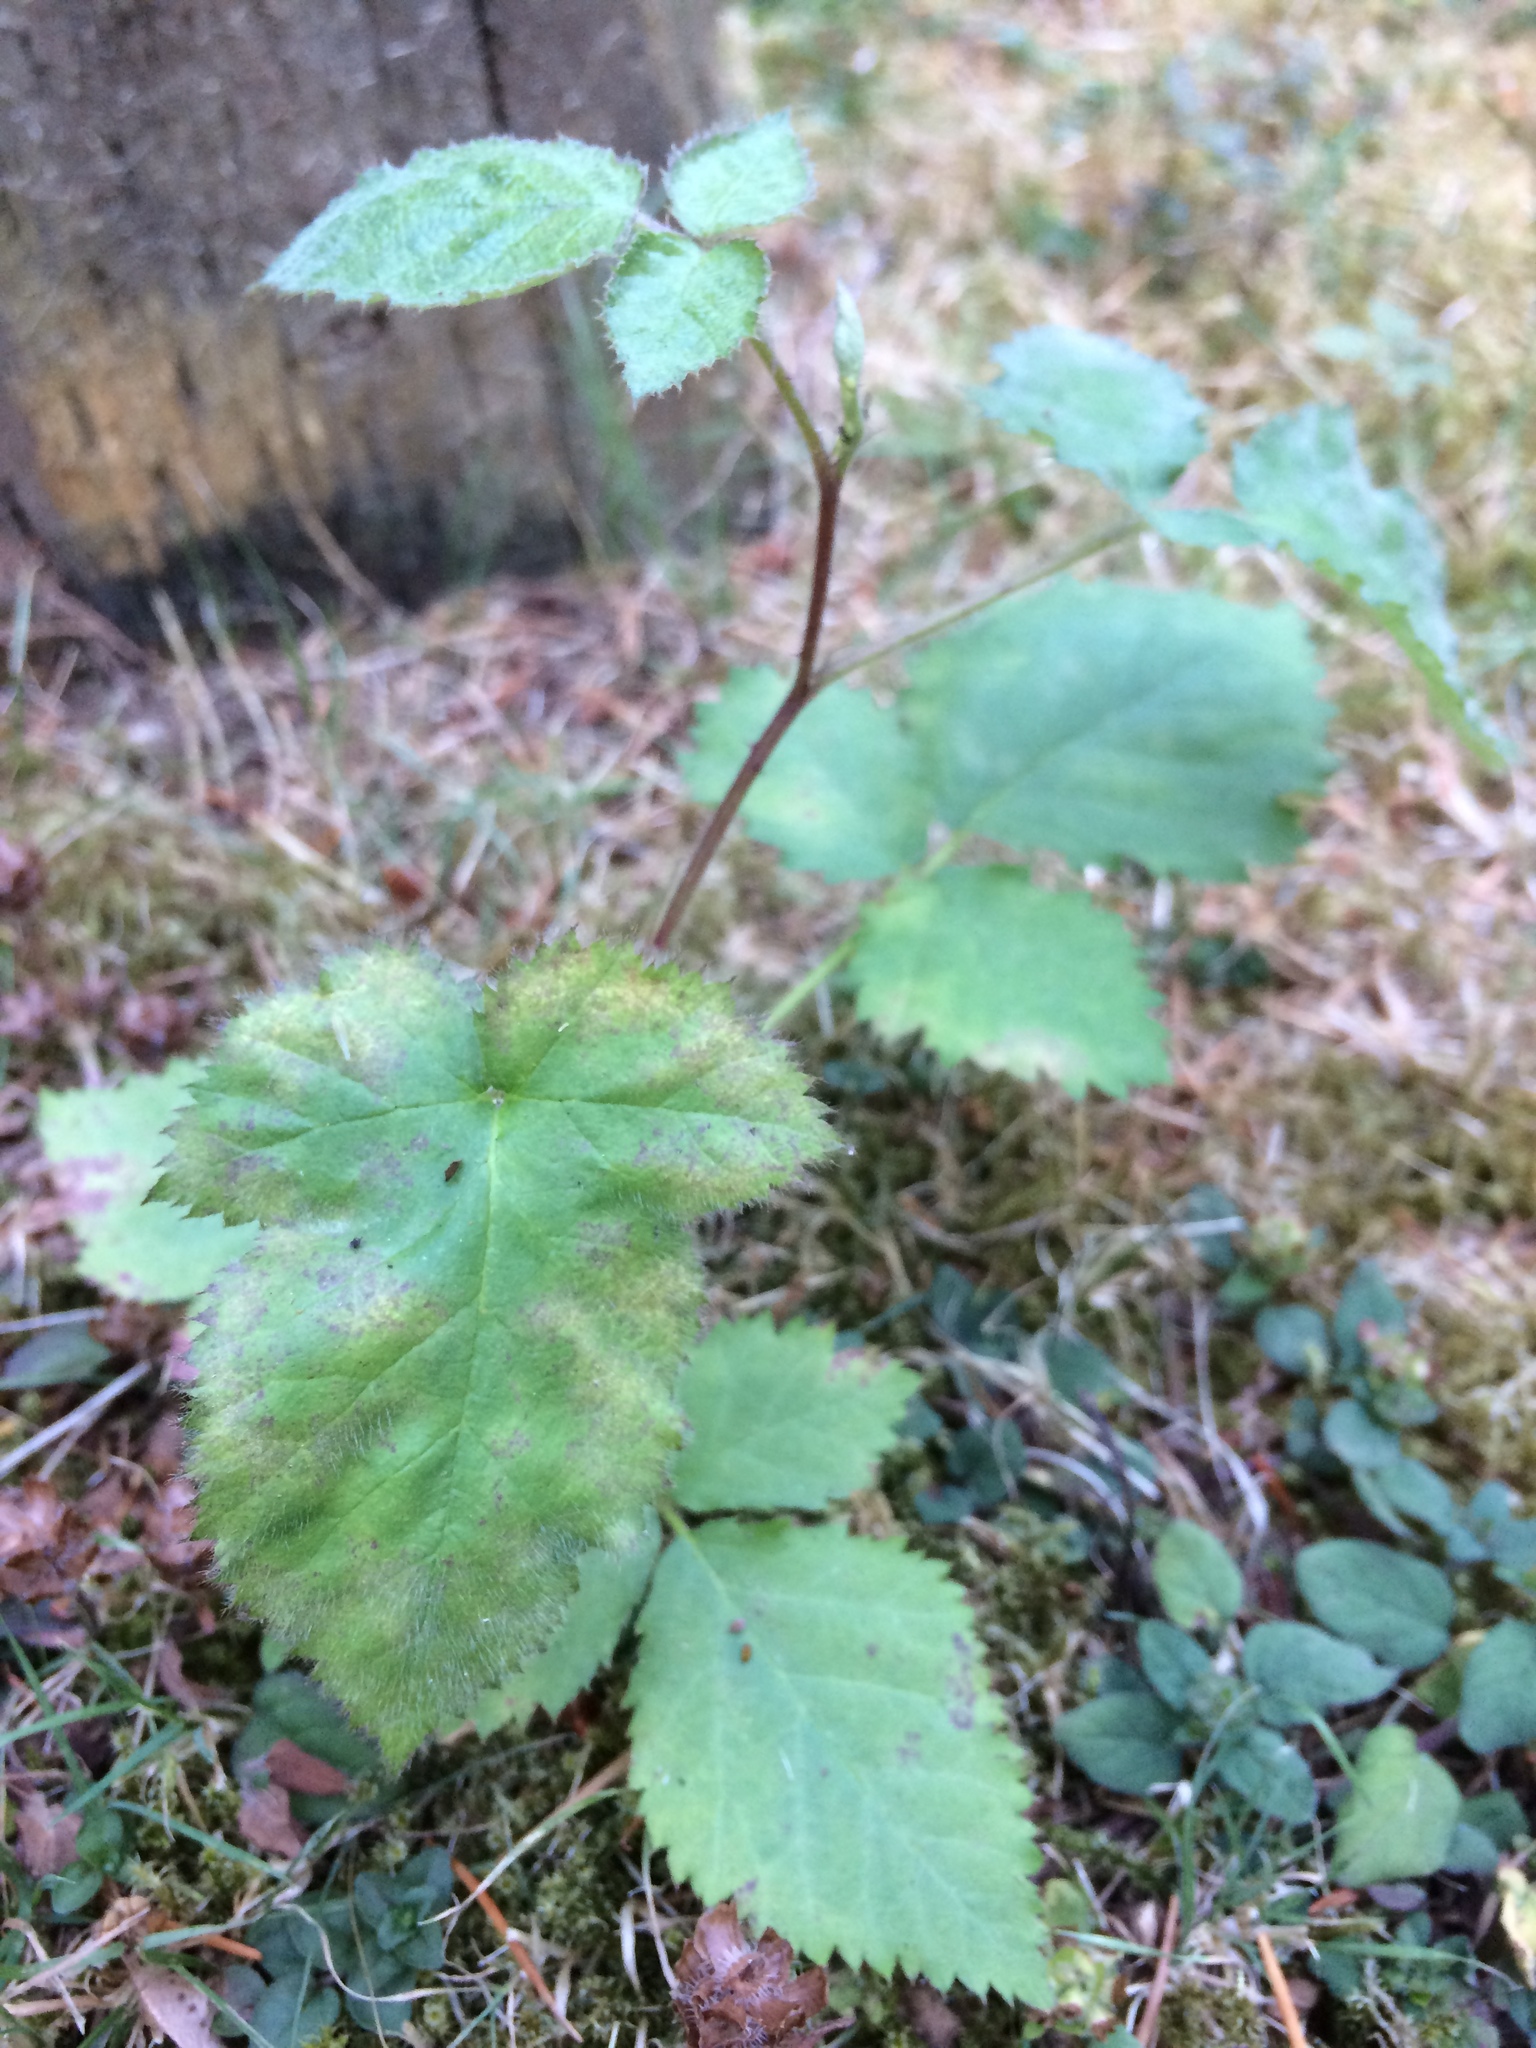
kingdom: Plantae
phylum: Tracheophyta
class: Magnoliopsida
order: Rosales
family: Rosaceae
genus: Rubus
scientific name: Rubus armeniacus
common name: Himalayan blackberry
